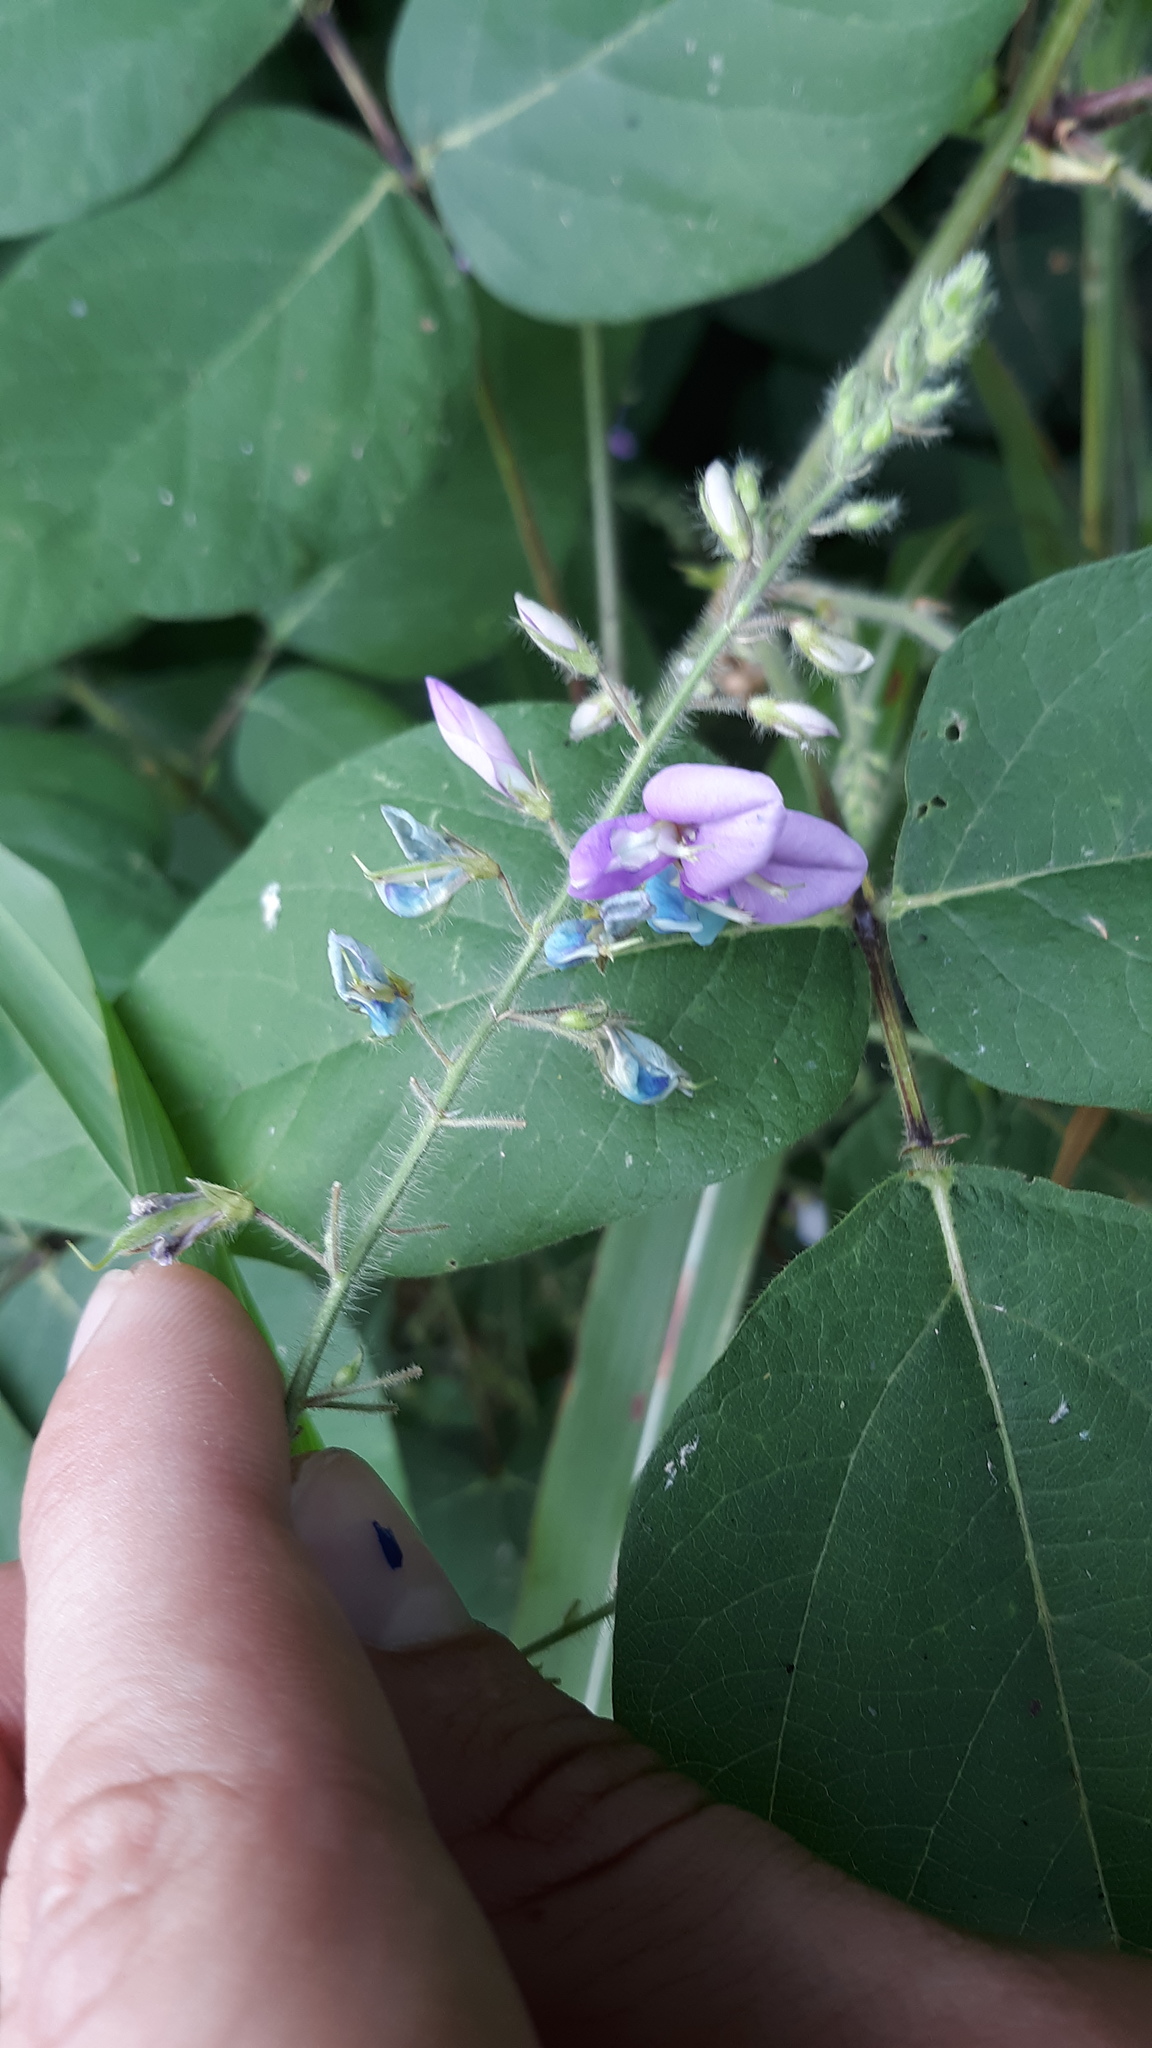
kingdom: Plantae
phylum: Tracheophyta
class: Magnoliopsida
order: Fabales
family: Fabaceae
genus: Desmodium
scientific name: Desmodium canescens
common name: Hoary tick-clover
